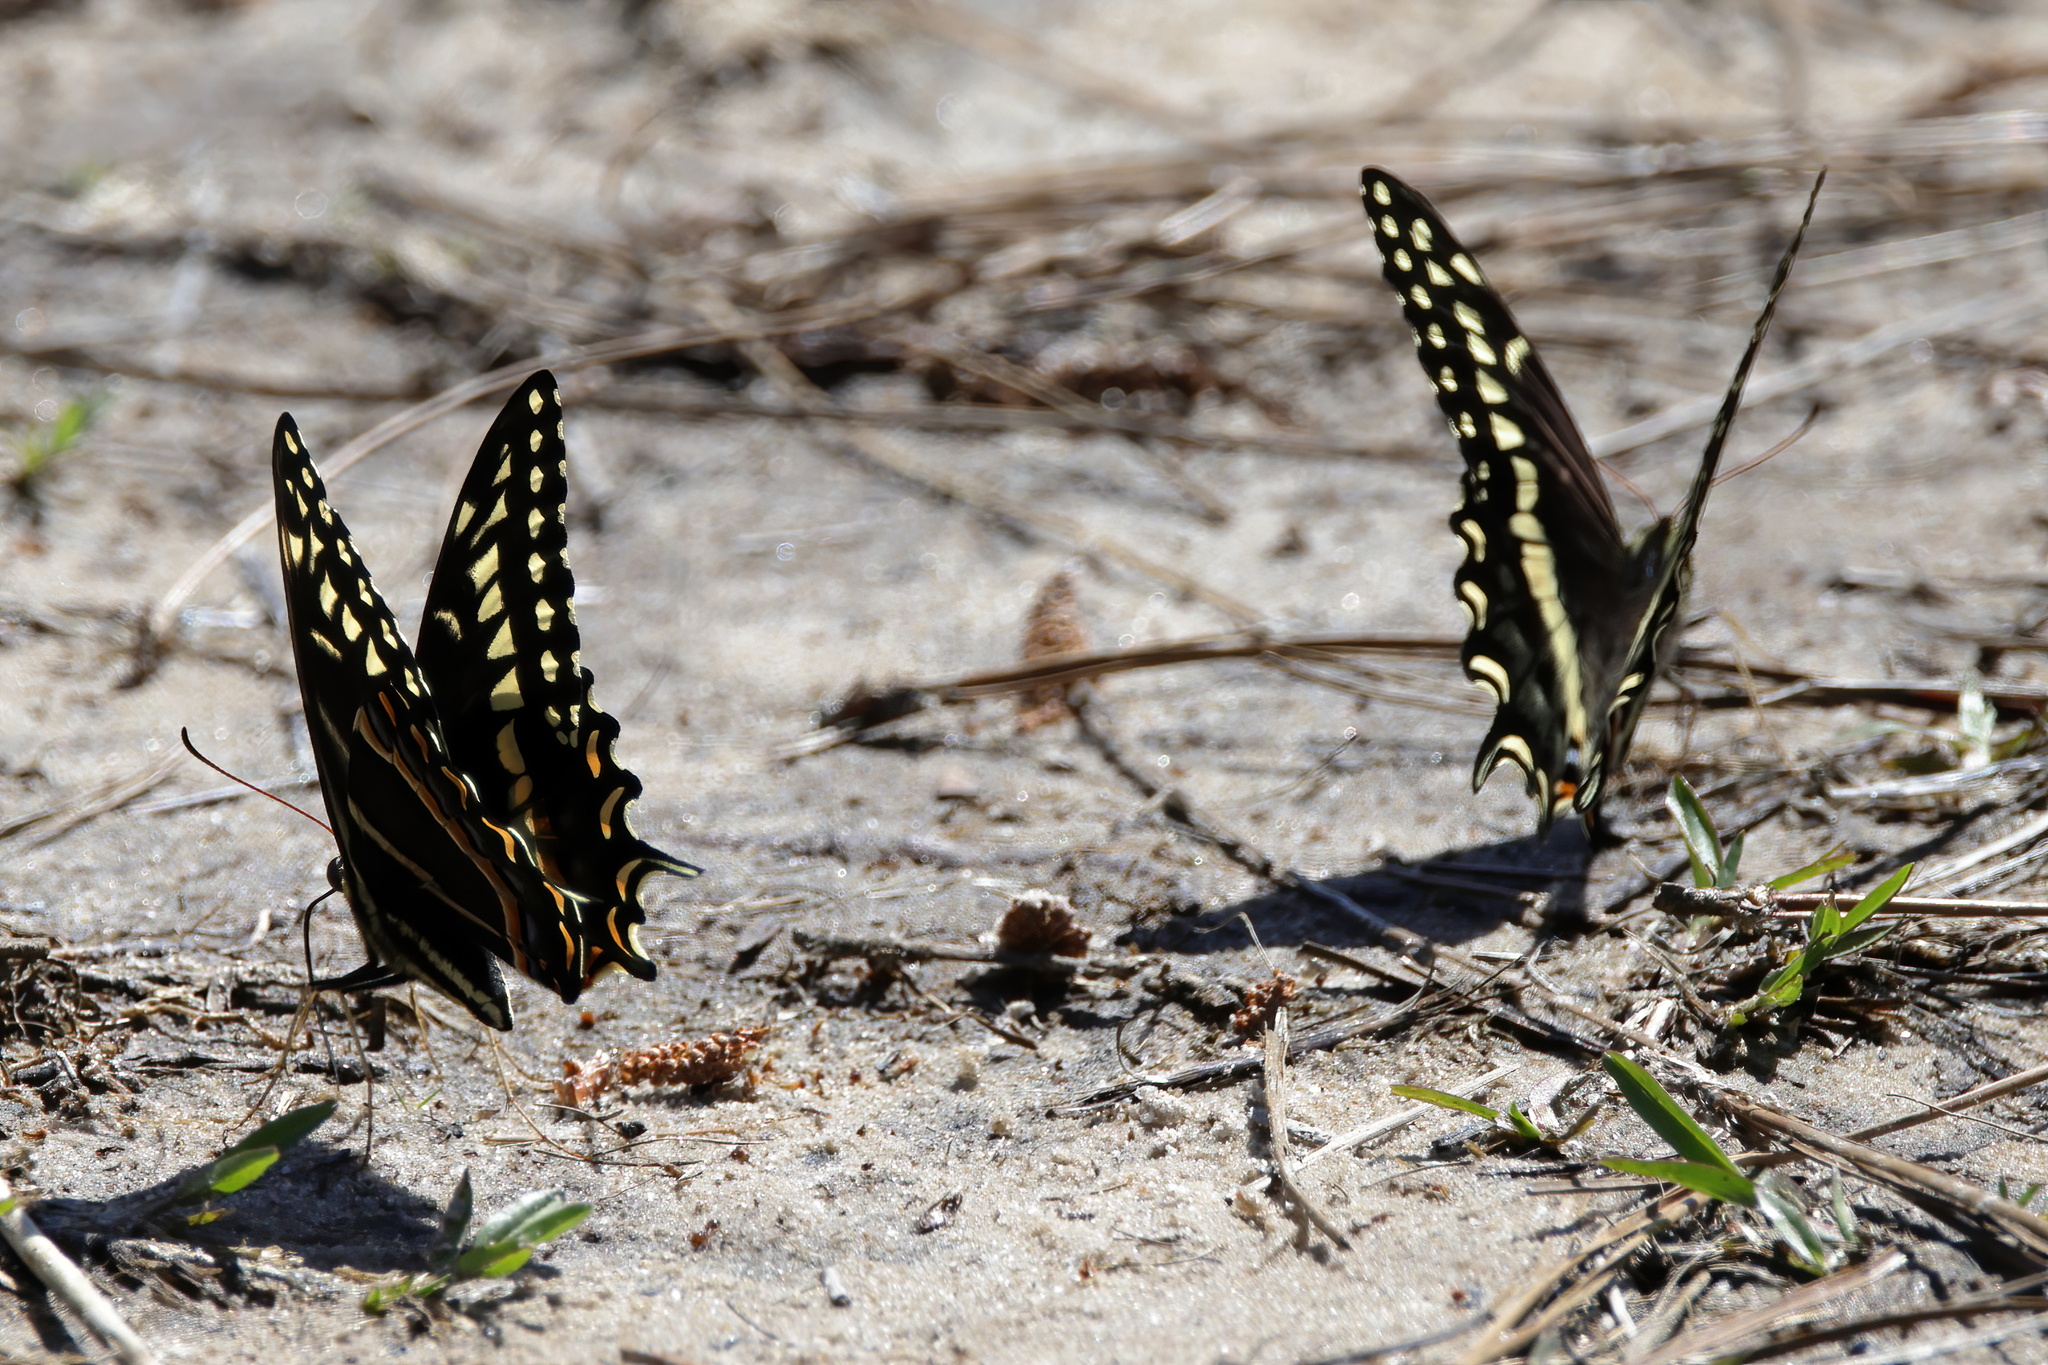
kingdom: Animalia
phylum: Arthropoda
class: Insecta
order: Lepidoptera
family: Papilionidae
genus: Papilio
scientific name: Papilio palamedes
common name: Palamedes swallowtail
